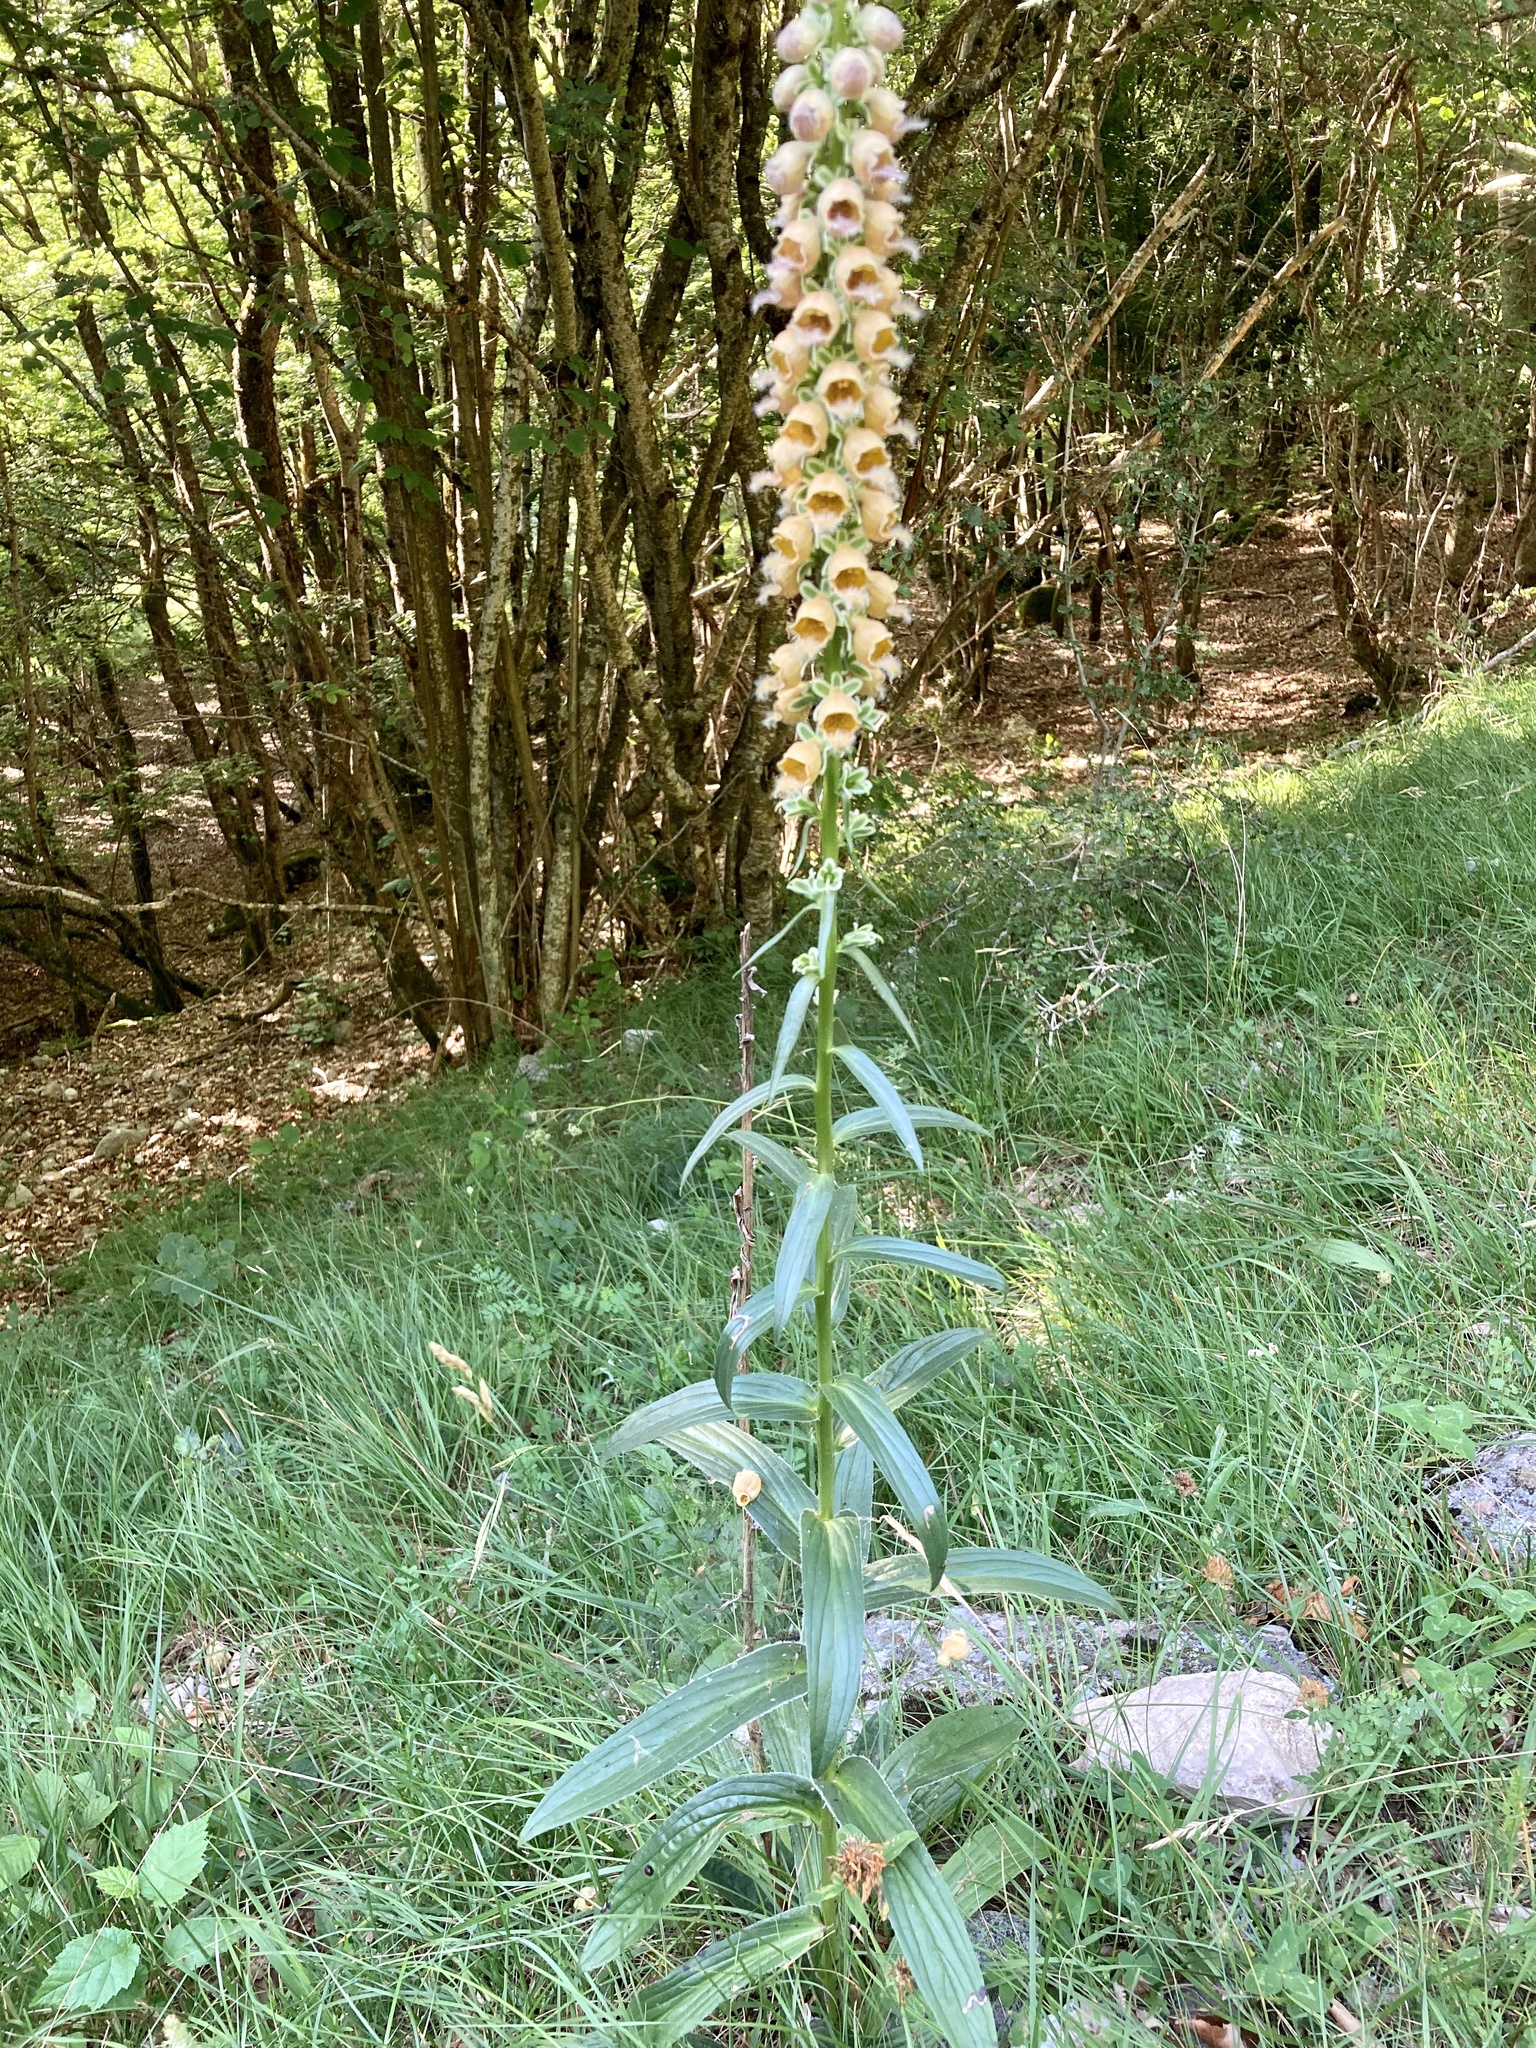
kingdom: Plantae
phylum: Tracheophyta
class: Magnoliopsida
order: Lamiales
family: Plantaginaceae
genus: Digitalis
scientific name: Digitalis ferruginea
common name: Rusty foxglove
